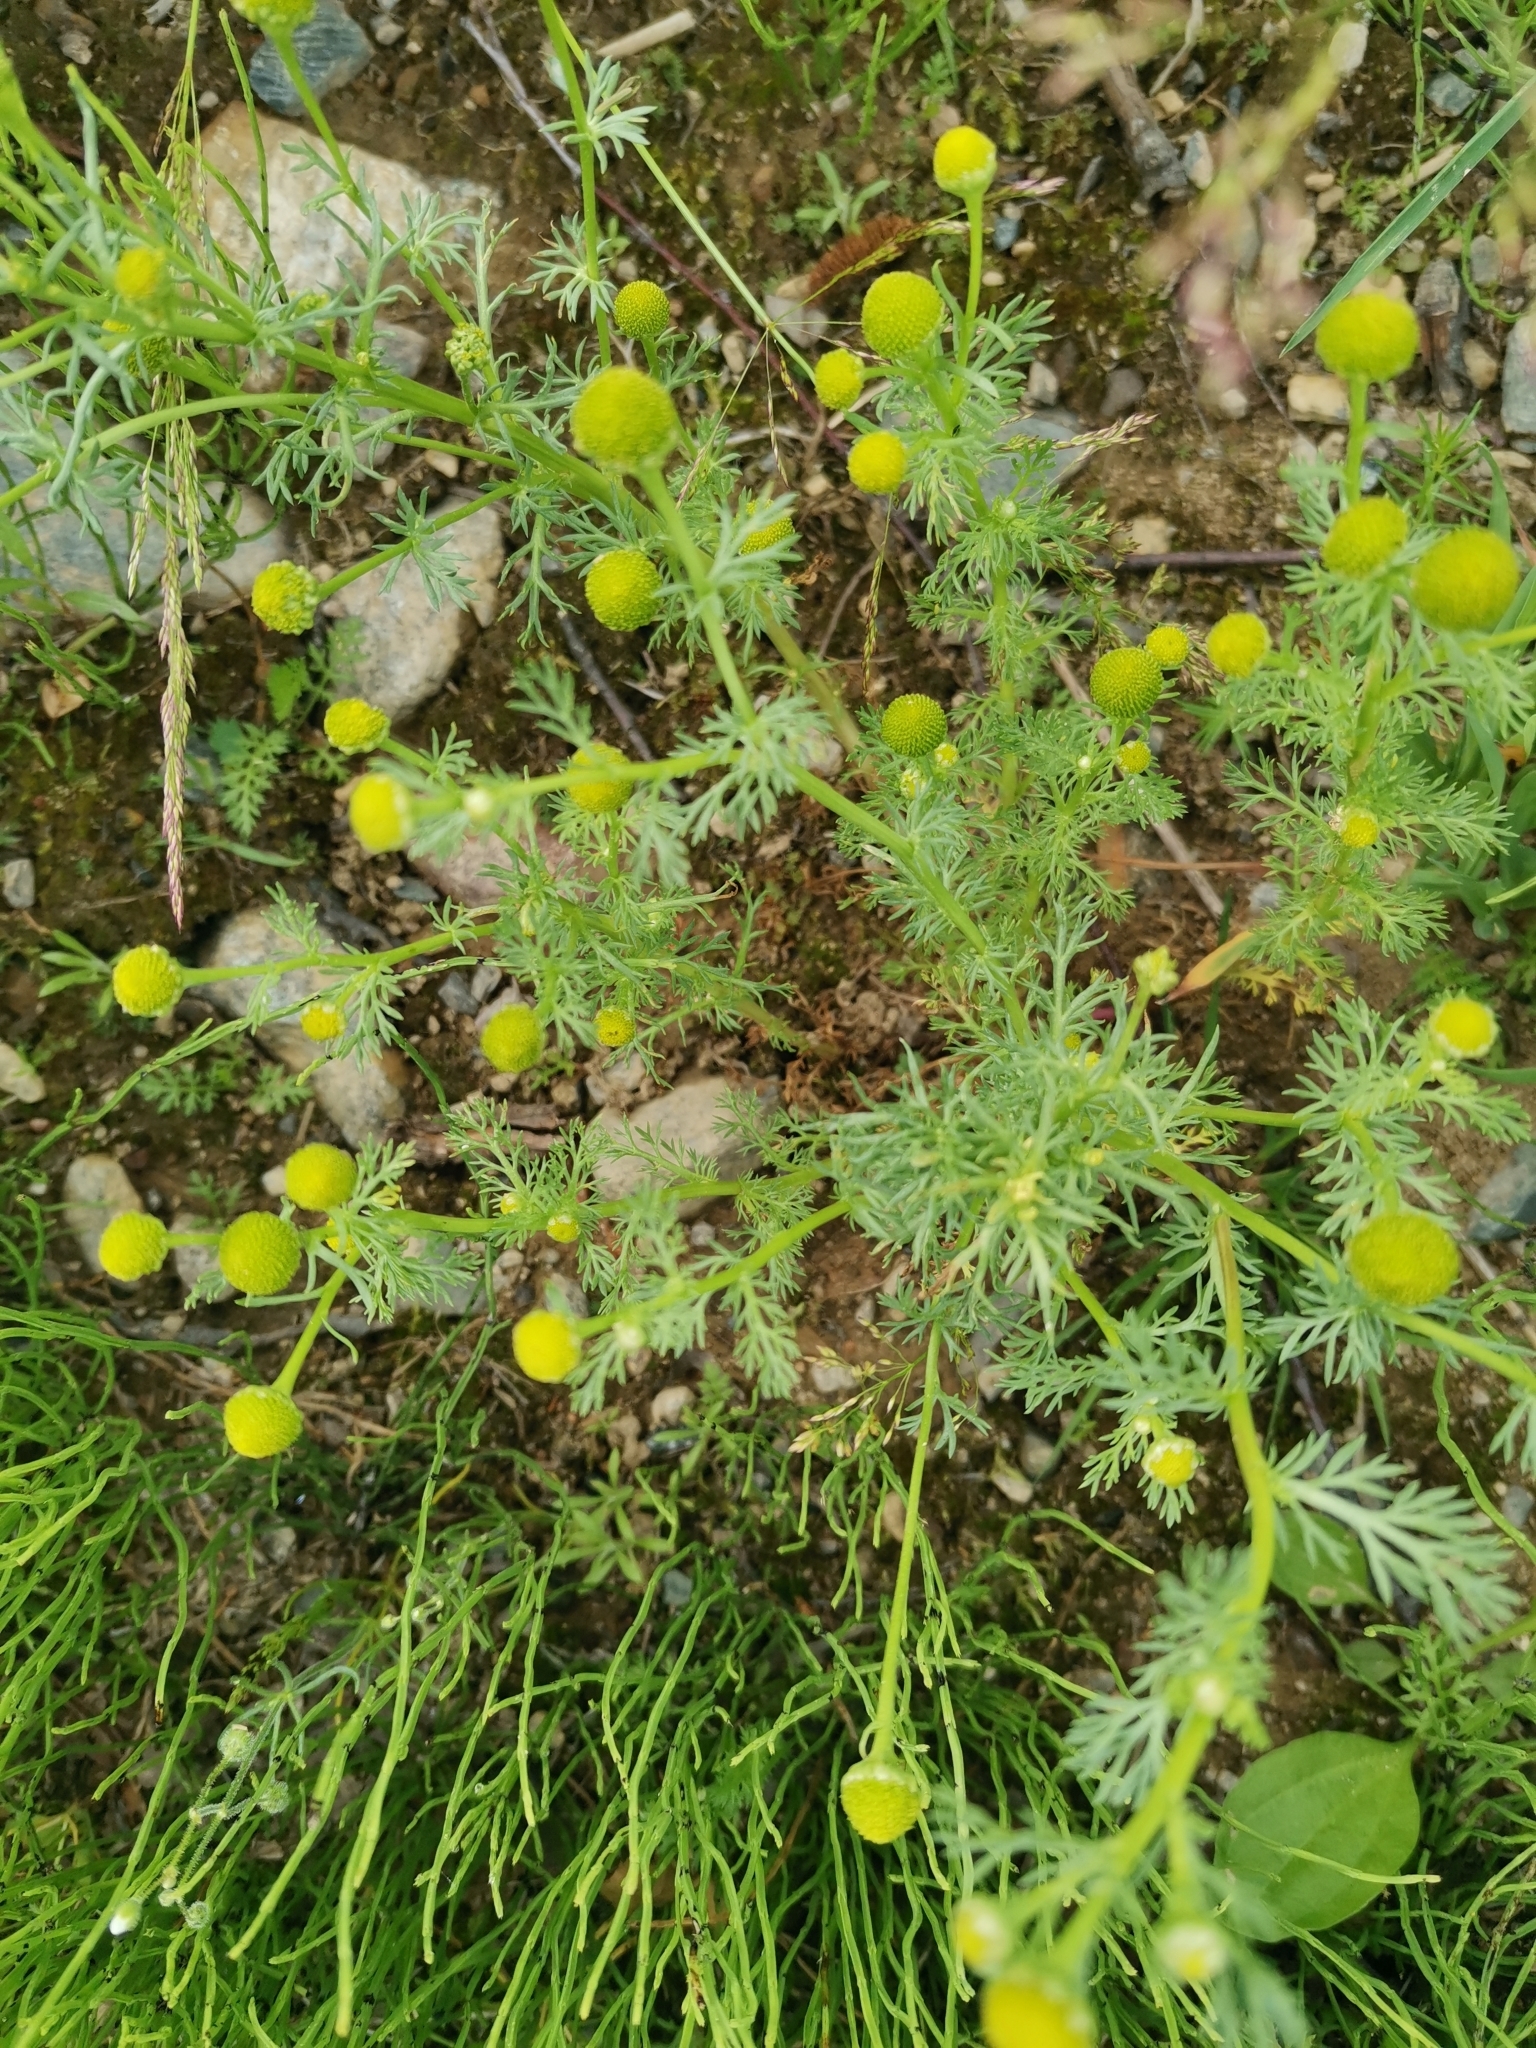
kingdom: Plantae
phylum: Tracheophyta
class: Magnoliopsida
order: Asterales
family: Asteraceae
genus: Matricaria
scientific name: Matricaria discoidea
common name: Disc mayweed
